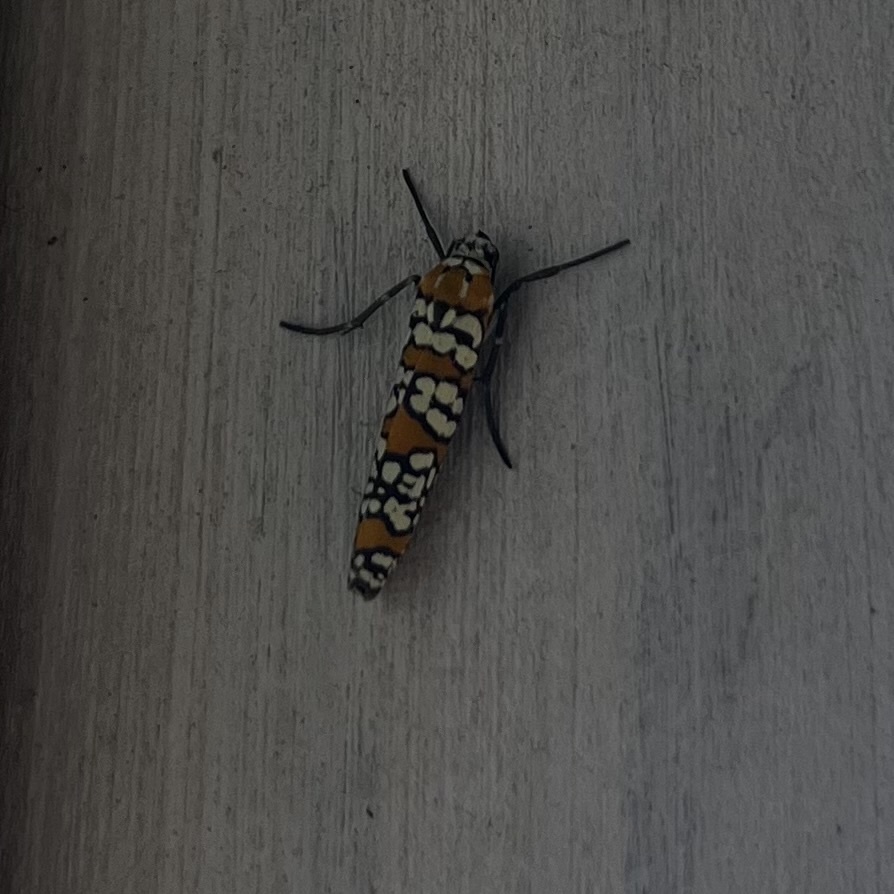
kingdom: Animalia
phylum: Arthropoda
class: Insecta
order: Lepidoptera
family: Attevidae
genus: Atteva
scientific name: Atteva punctella
